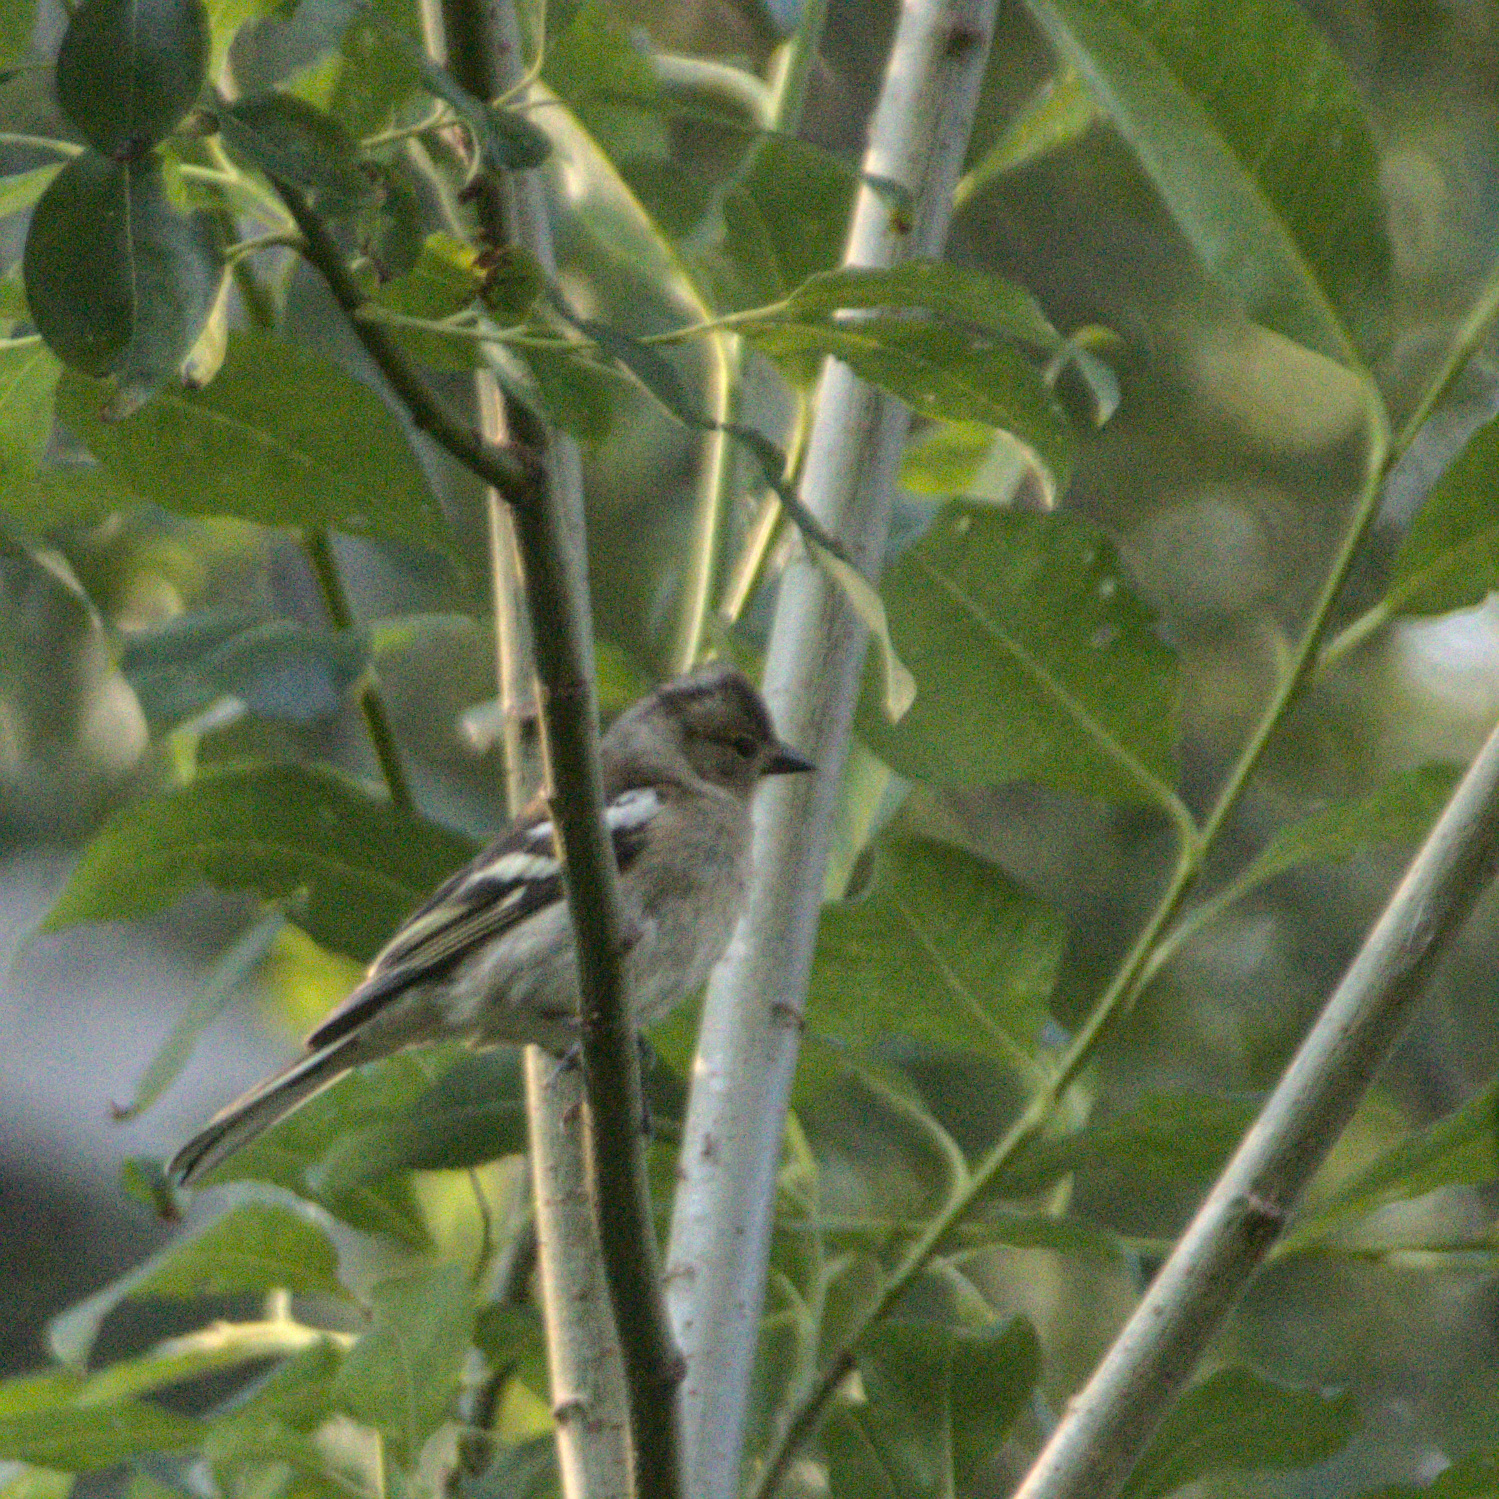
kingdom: Animalia
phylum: Chordata
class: Aves
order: Passeriformes
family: Fringillidae
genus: Fringilla
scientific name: Fringilla coelebs
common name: Common chaffinch
